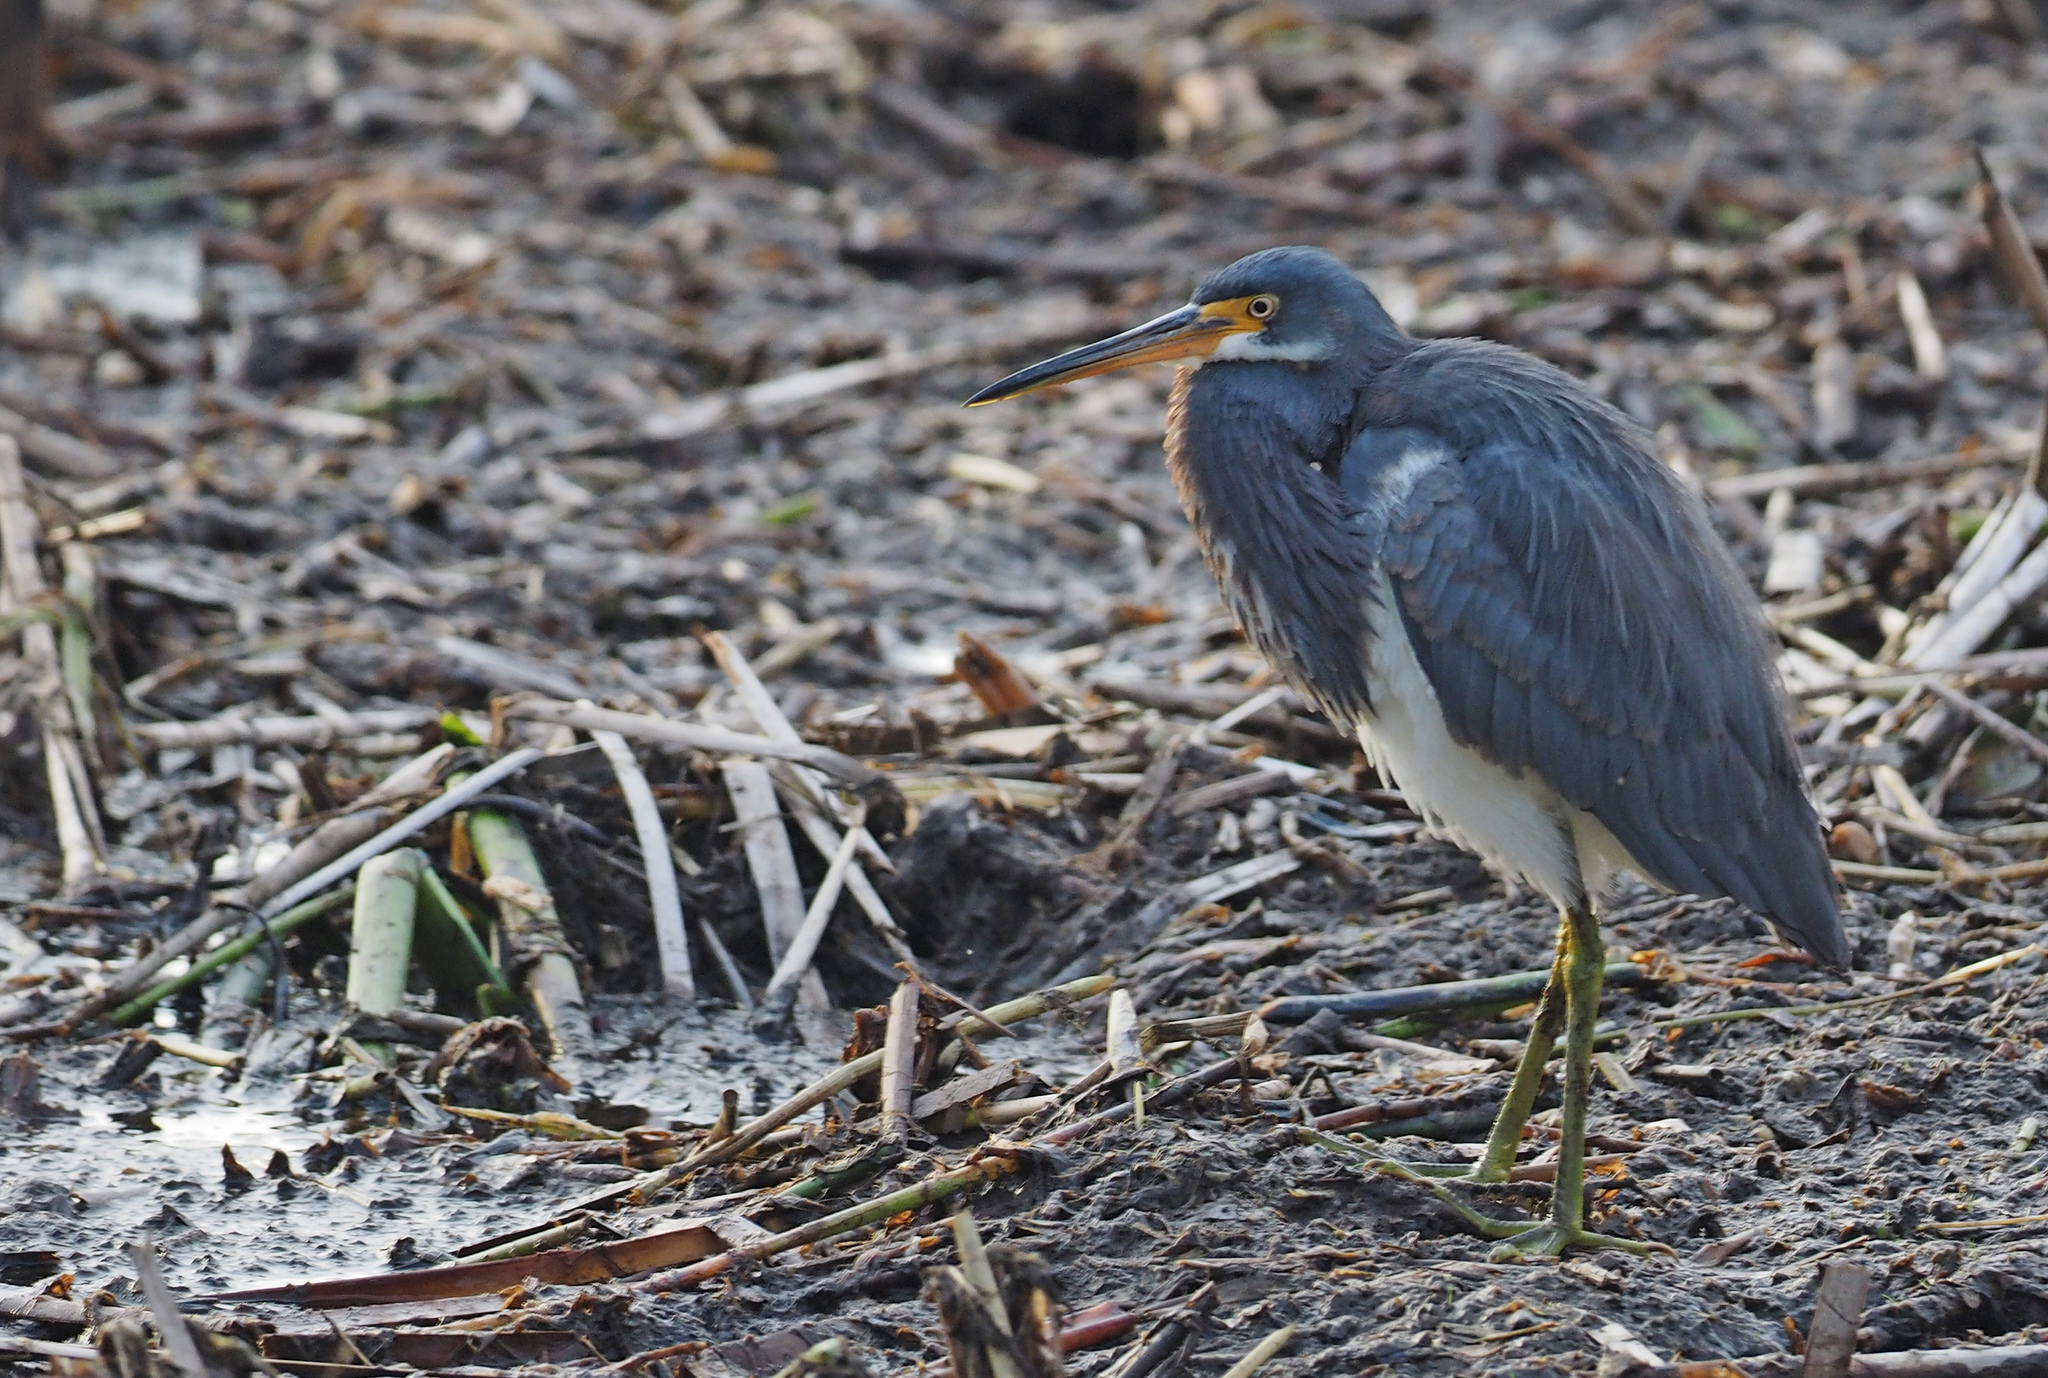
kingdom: Animalia
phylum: Chordata
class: Aves
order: Pelecaniformes
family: Ardeidae
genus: Egretta
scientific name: Egretta tricolor
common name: Tricolored heron
